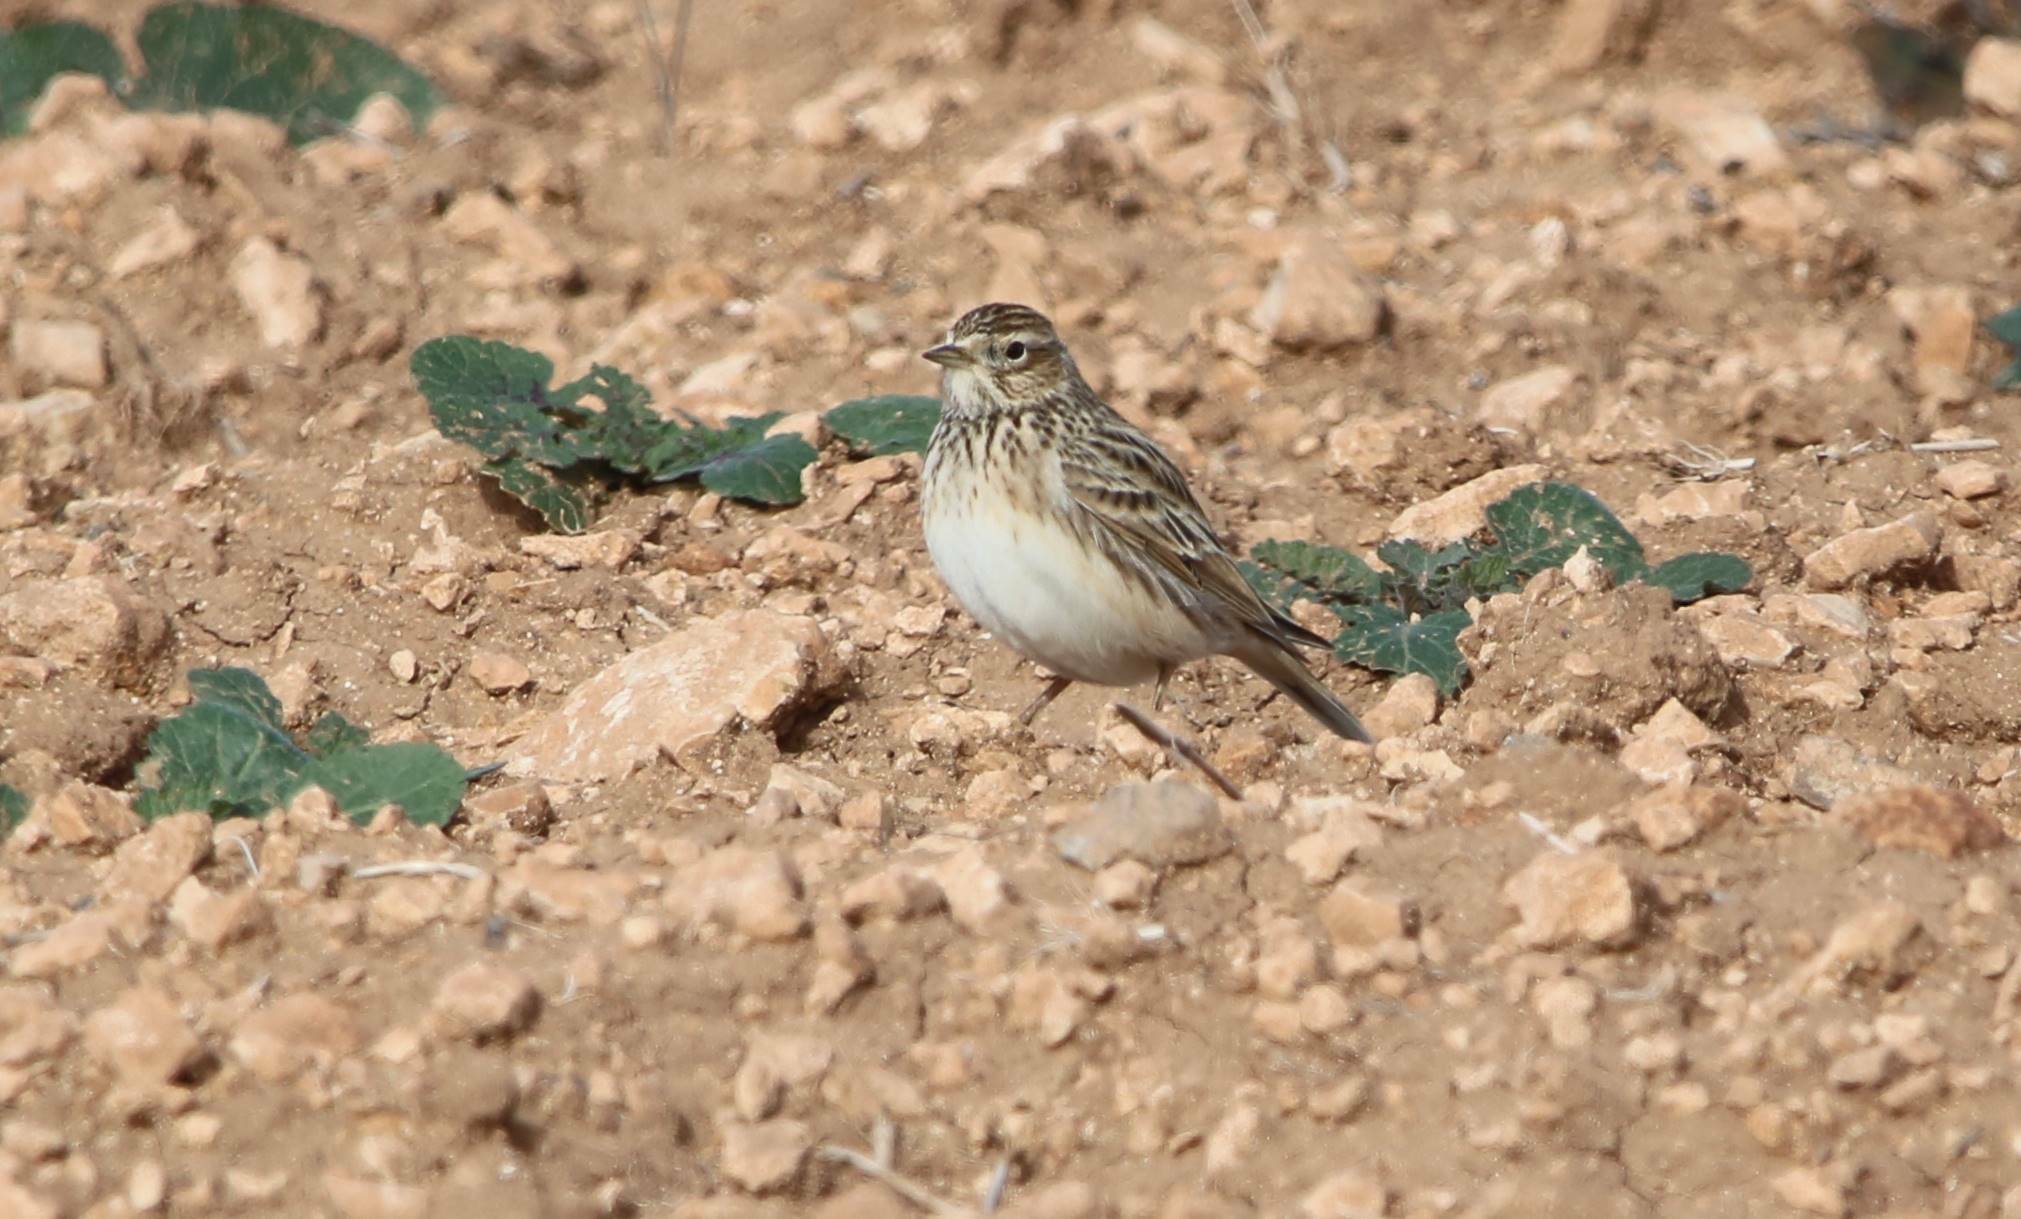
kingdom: Animalia
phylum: Chordata
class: Aves
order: Passeriformes
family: Alaudidae
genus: Alauda
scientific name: Alauda arvensis
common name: Eurasian skylark
